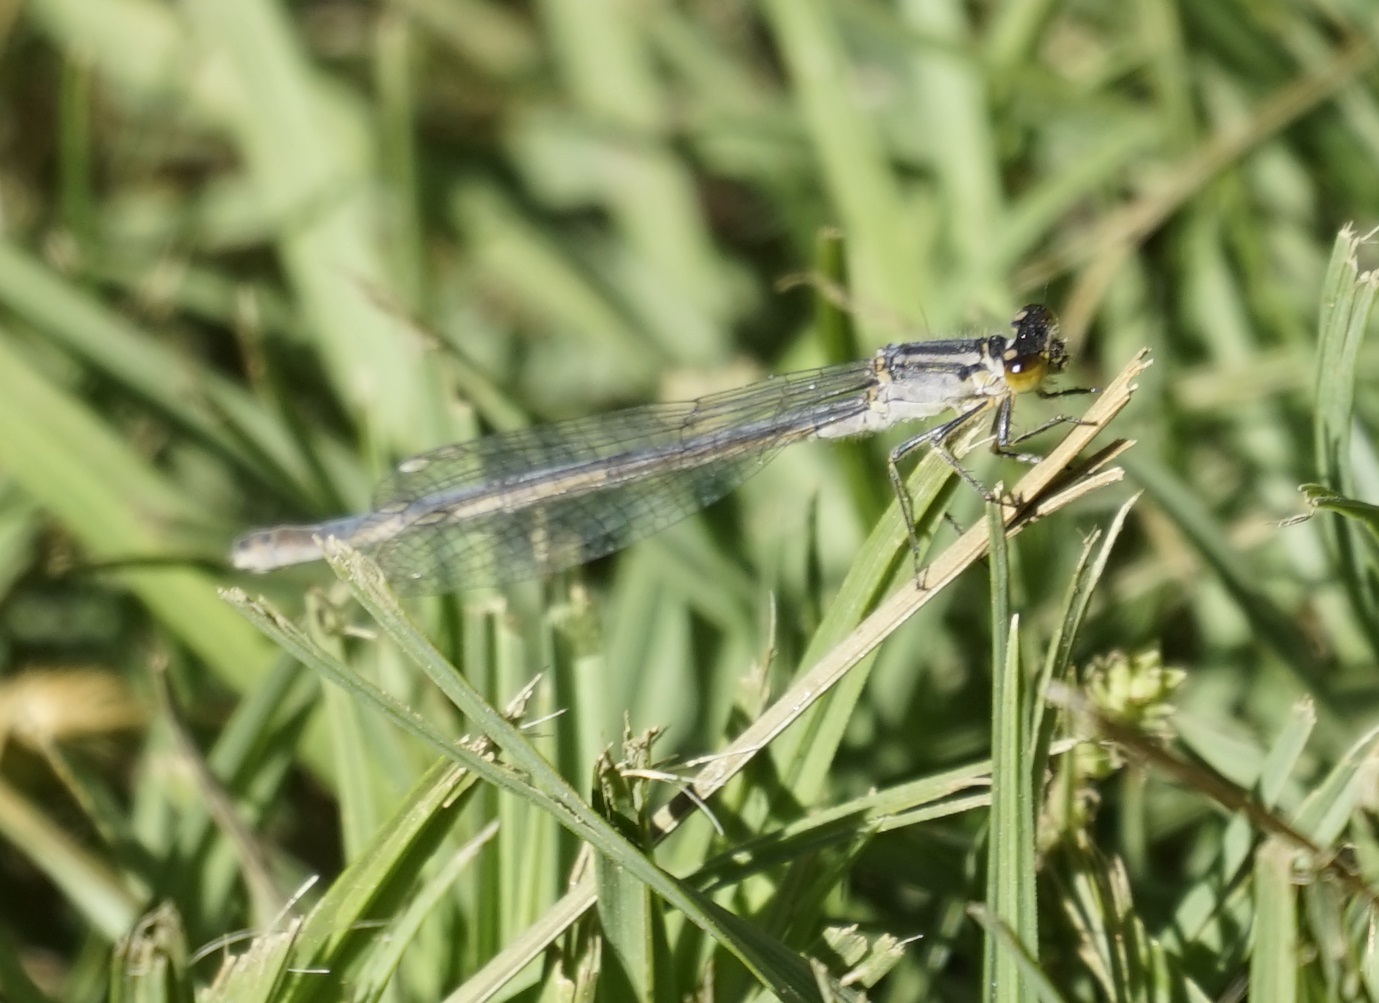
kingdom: Animalia
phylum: Arthropoda
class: Insecta
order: Odonata
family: Coenagrionidae
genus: Ischnura
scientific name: Ischnura heterosticta
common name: Common bluetail
